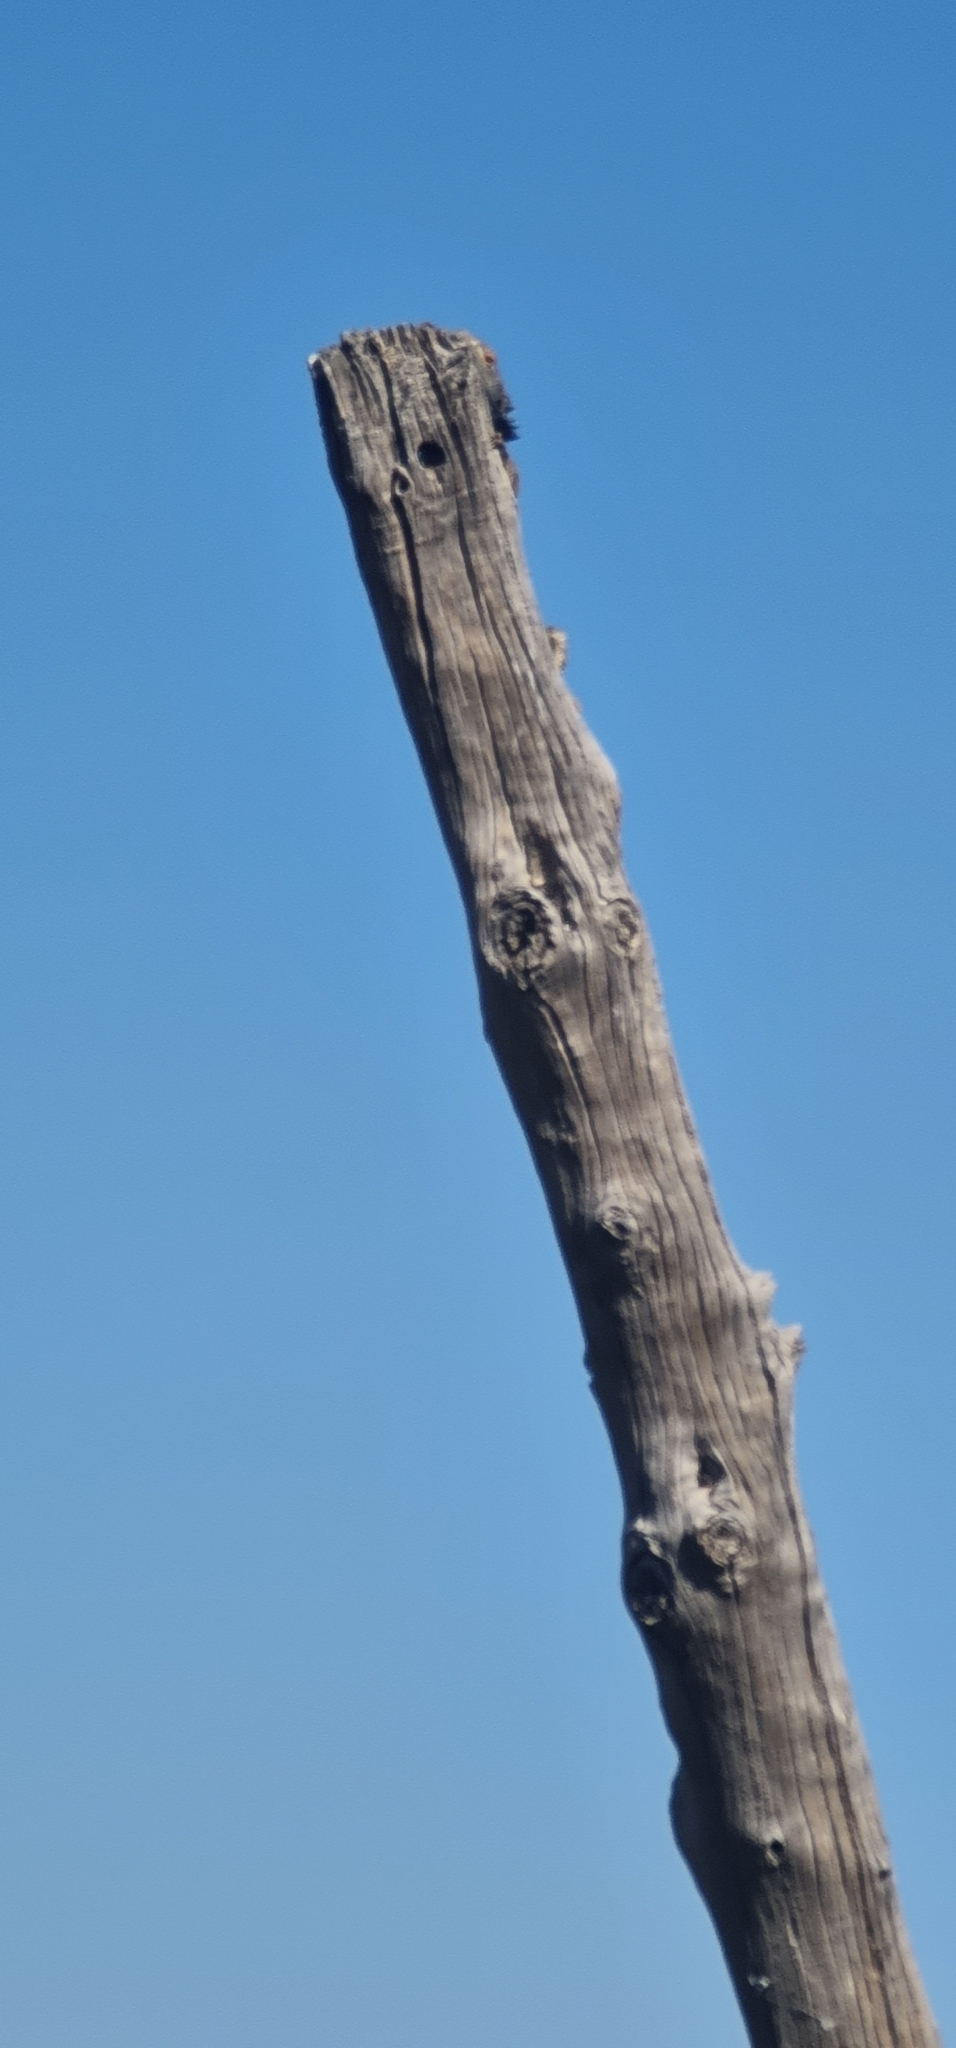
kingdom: Animalia
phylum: Chordata
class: Squamata
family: Agamidae
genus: Pogona
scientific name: Pogona vitticeps
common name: Central bearded dragon
